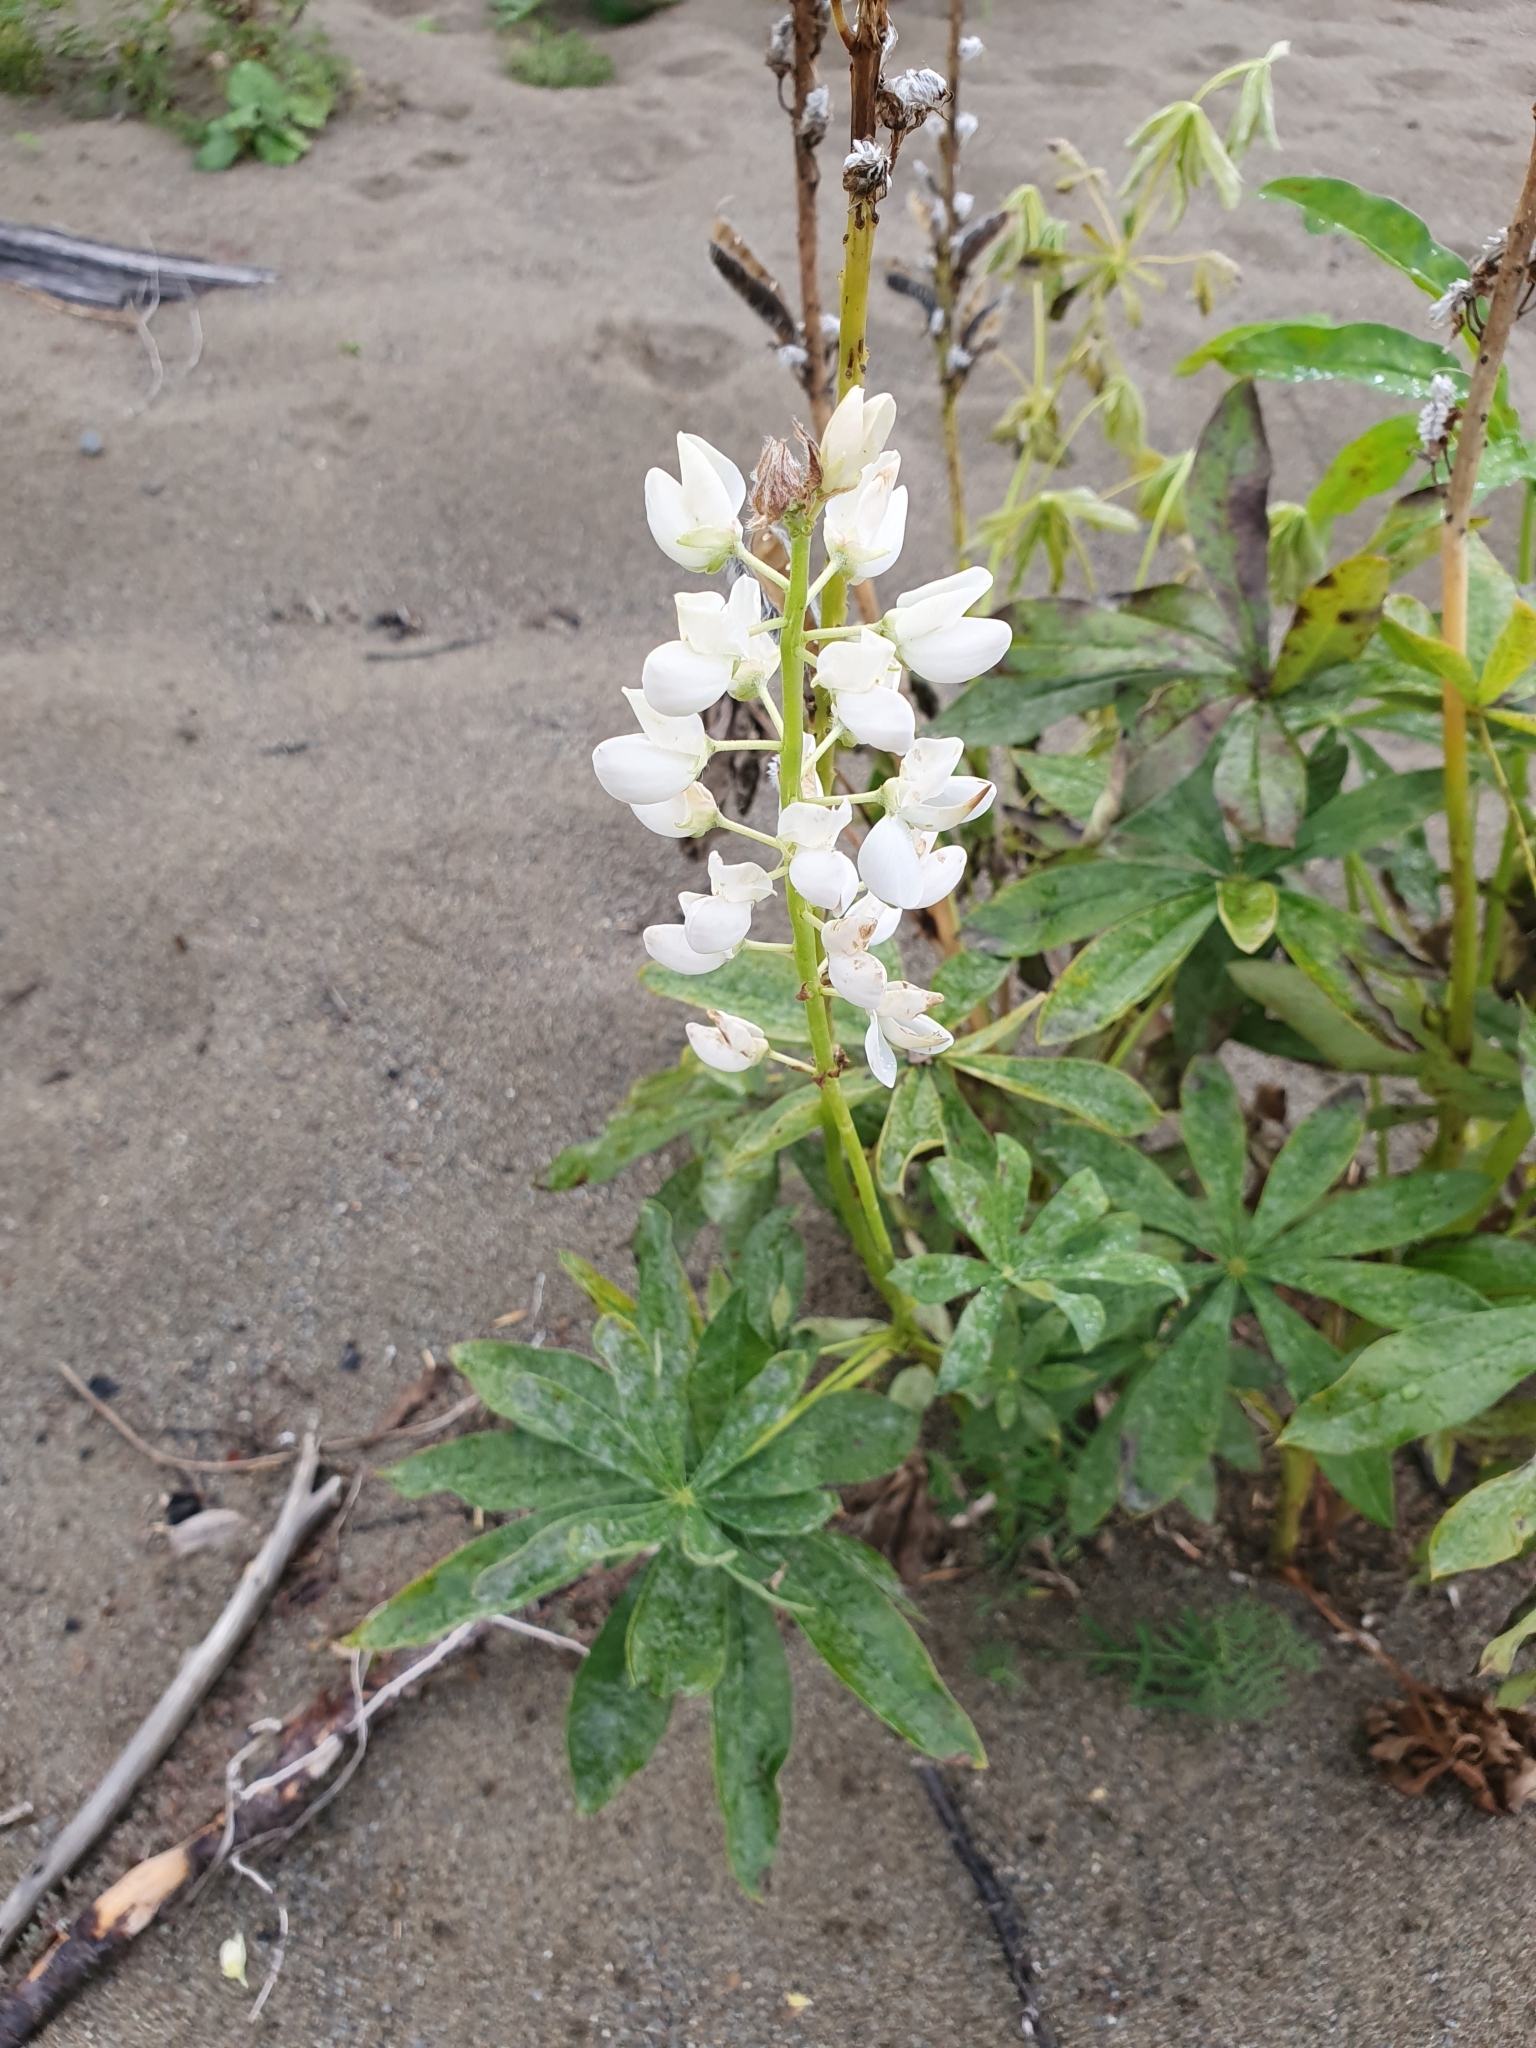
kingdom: Plantae
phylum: Tracheophyta
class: Magnoliopsida
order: Fabales
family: Fabaceae
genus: Lupinus
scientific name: Lupinus polyphyllus
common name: Garden lupin
